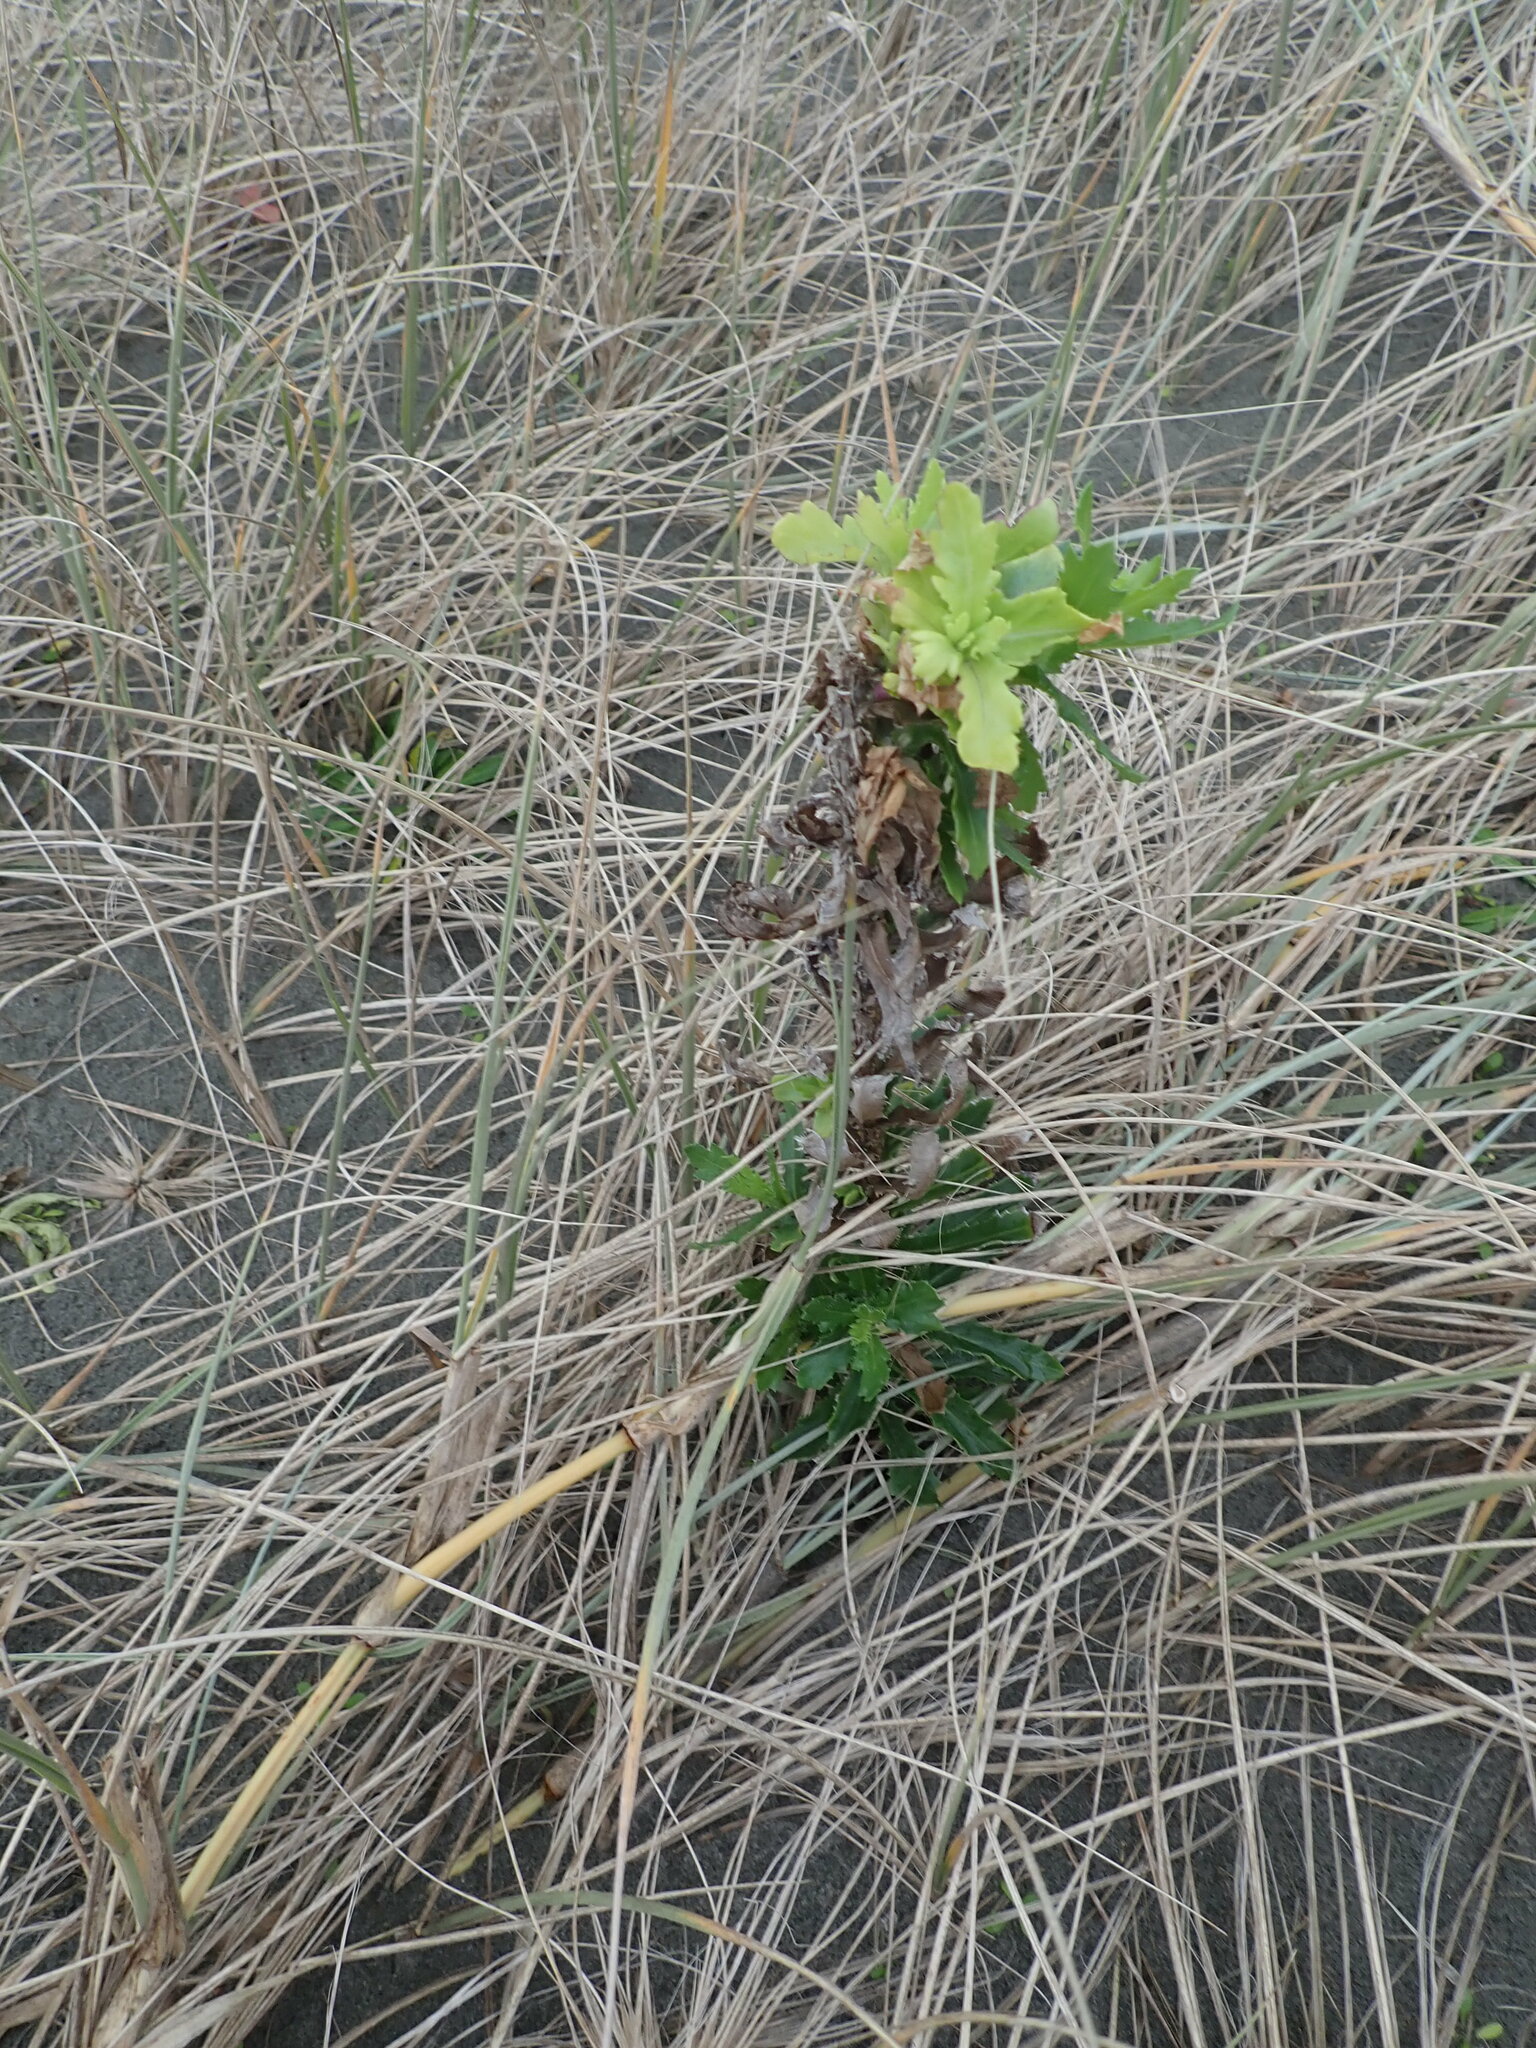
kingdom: Plantae
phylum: Tracheophyta
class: Magnoliopsida
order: Asterales
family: Asteraceae
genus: Senecio
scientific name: Senecio glastifolius
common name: Woad-leaved ragwort
